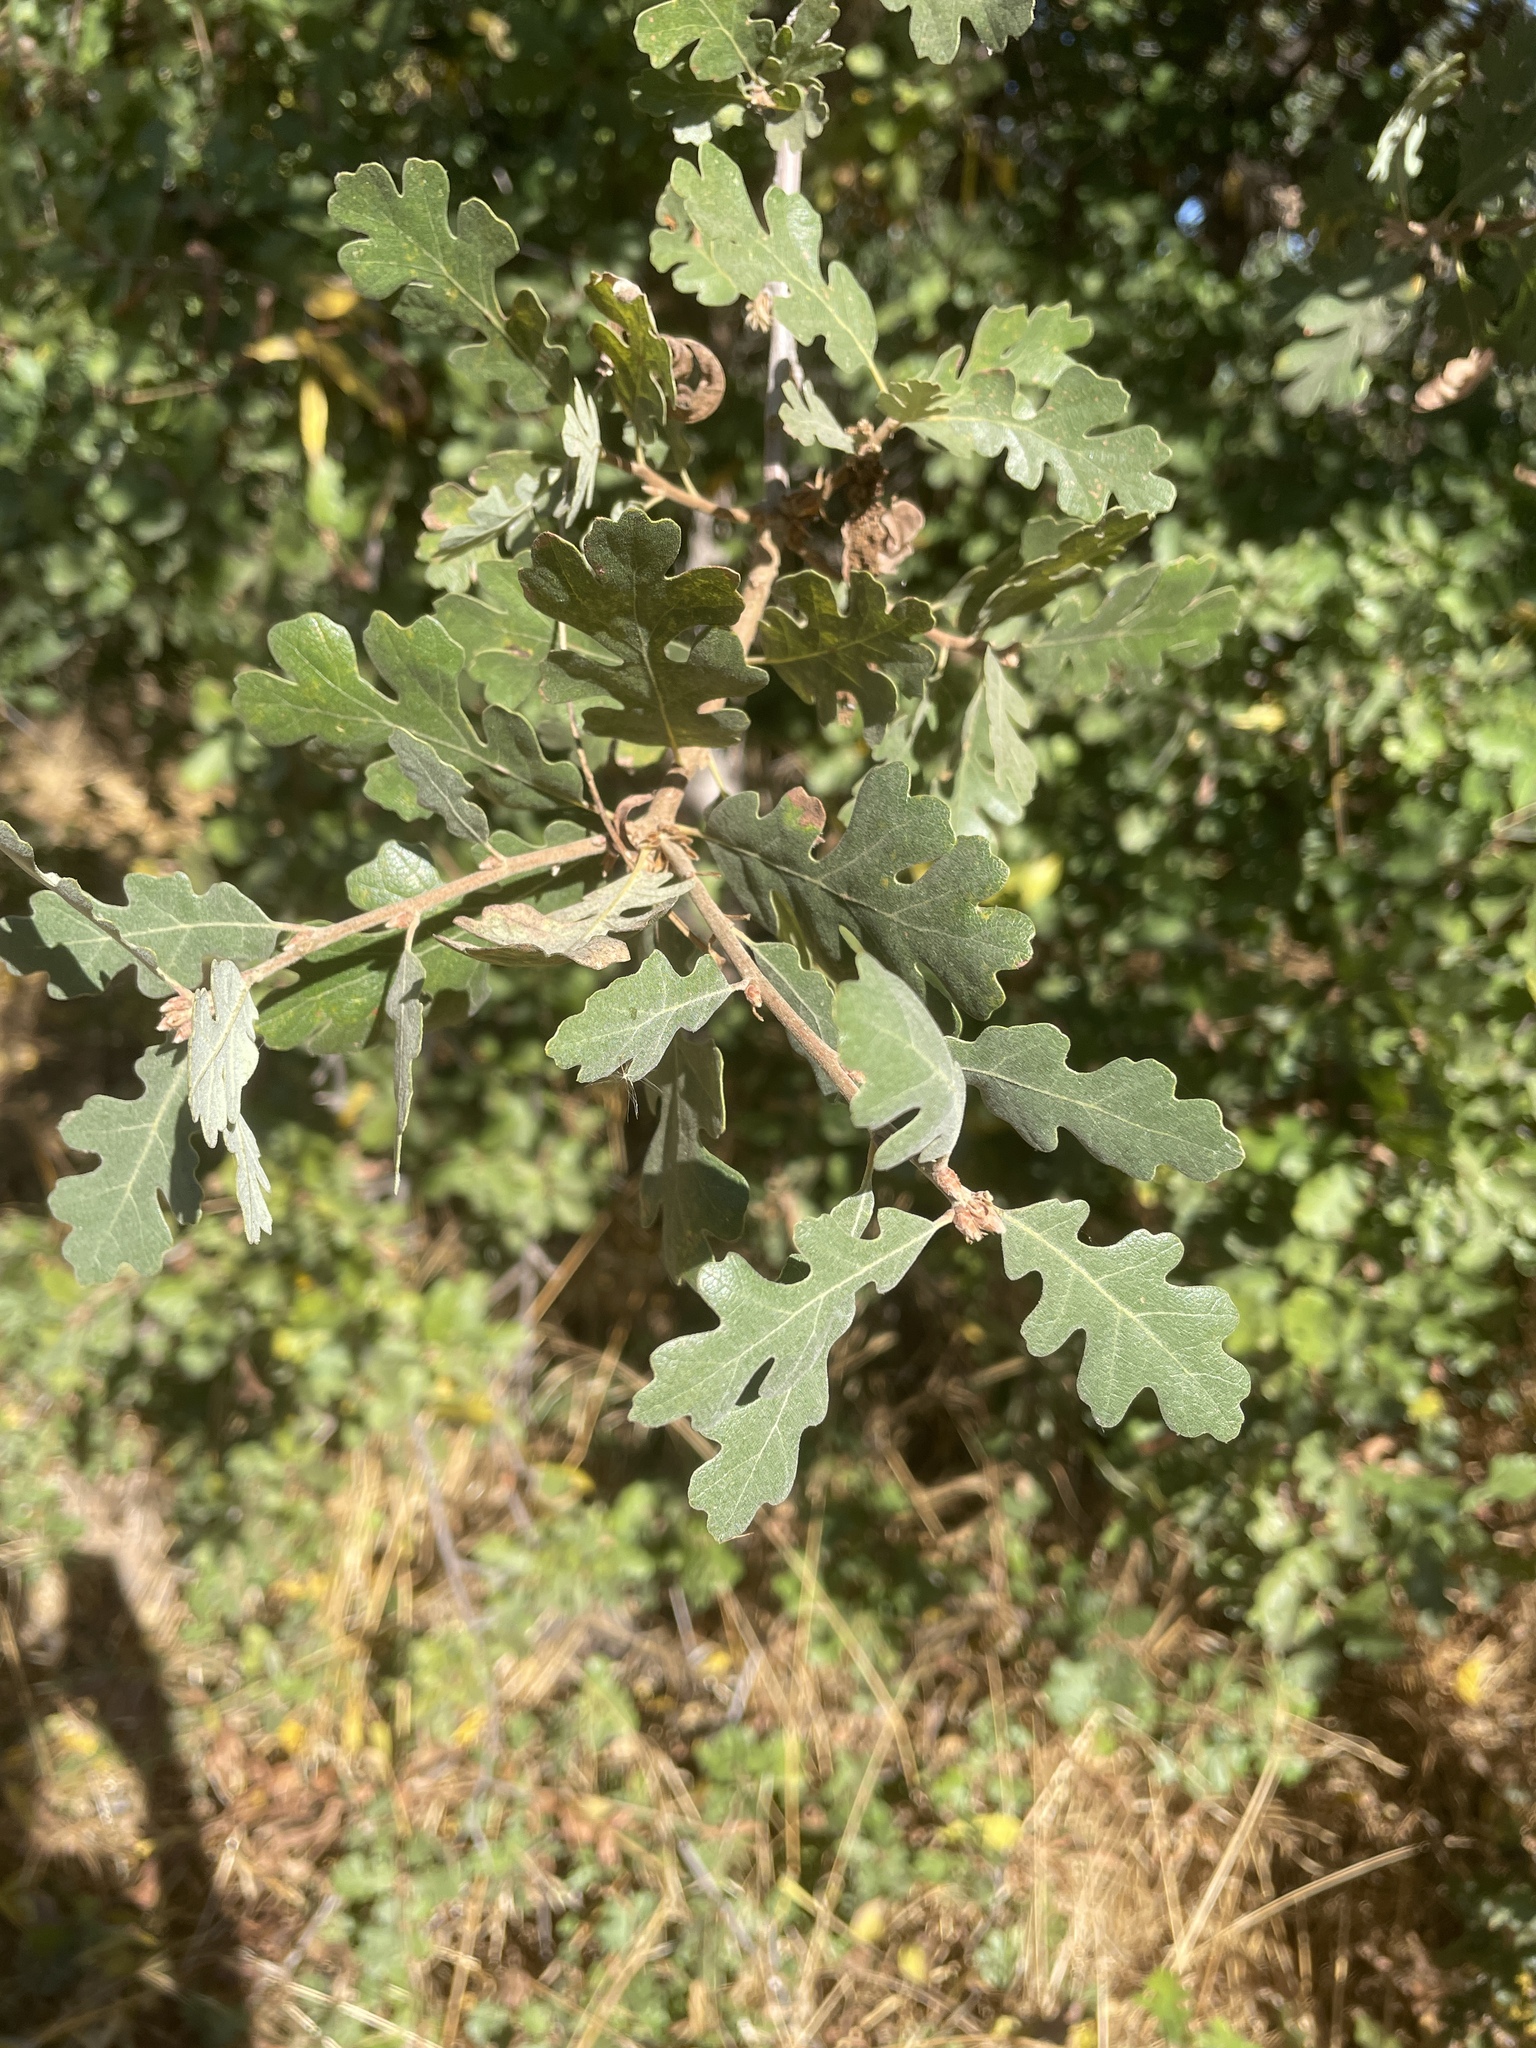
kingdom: Plantae
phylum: Tracheophyta
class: Magnoliopsida
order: Fagales
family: Fagaceae
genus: Quercus
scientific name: Quercus lobata
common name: Valley oak
